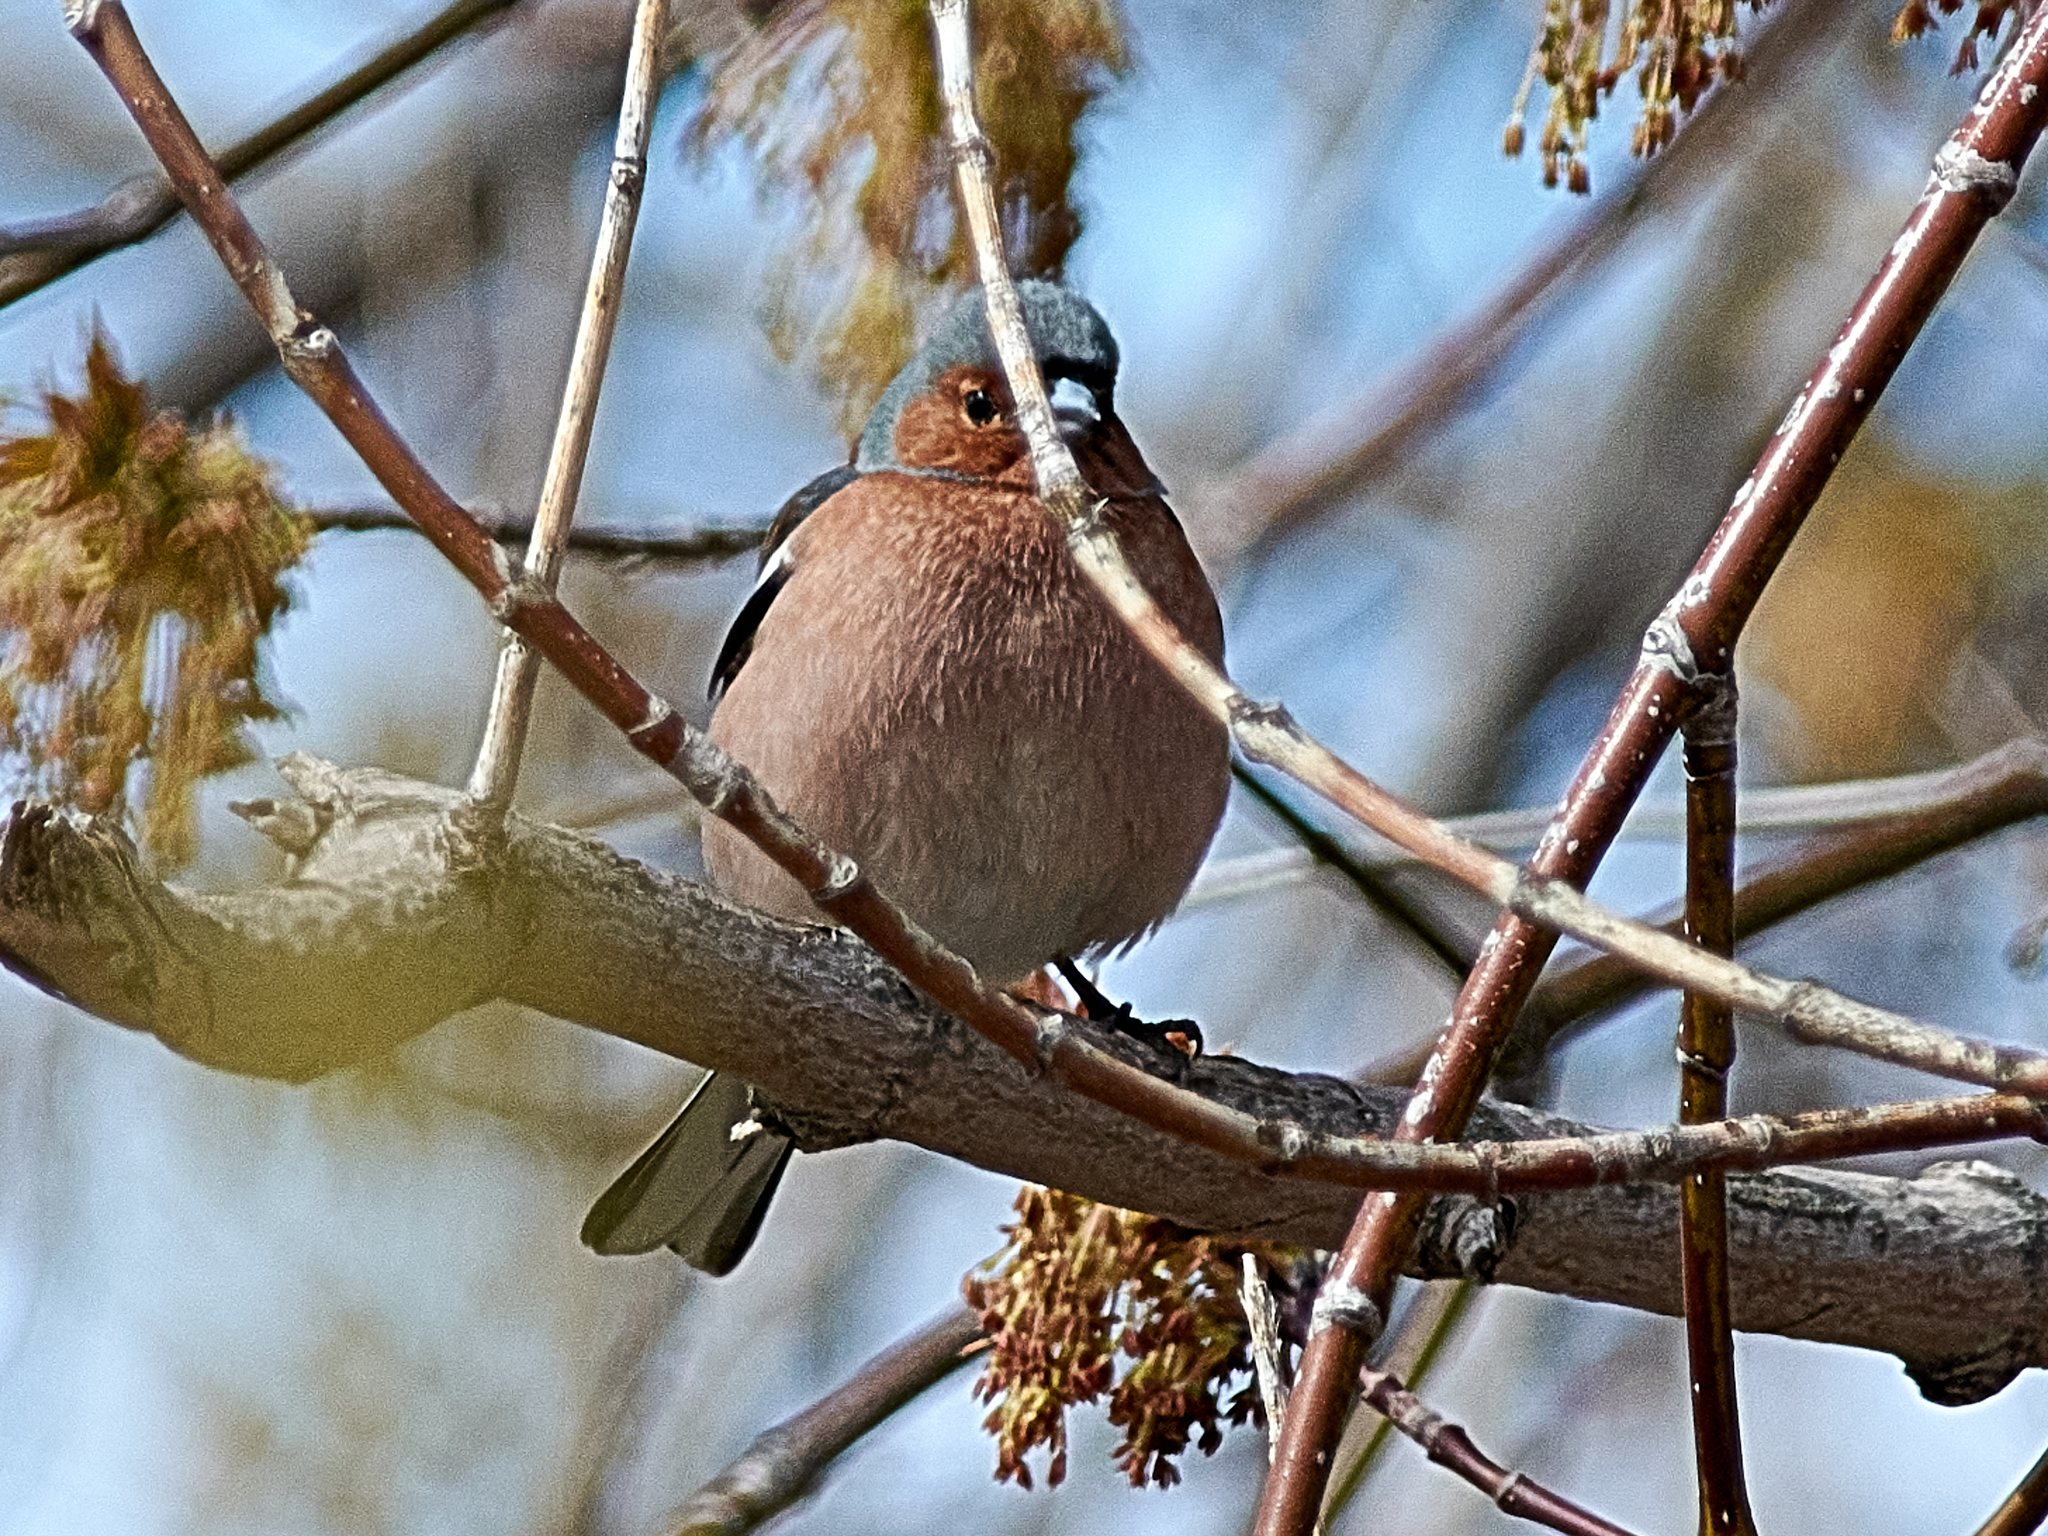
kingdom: Animalia
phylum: Chordata
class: Aves
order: Passeriformes
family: Fringillidae
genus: Fringilla
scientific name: Fringilla coelebs
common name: Common chaffinch
